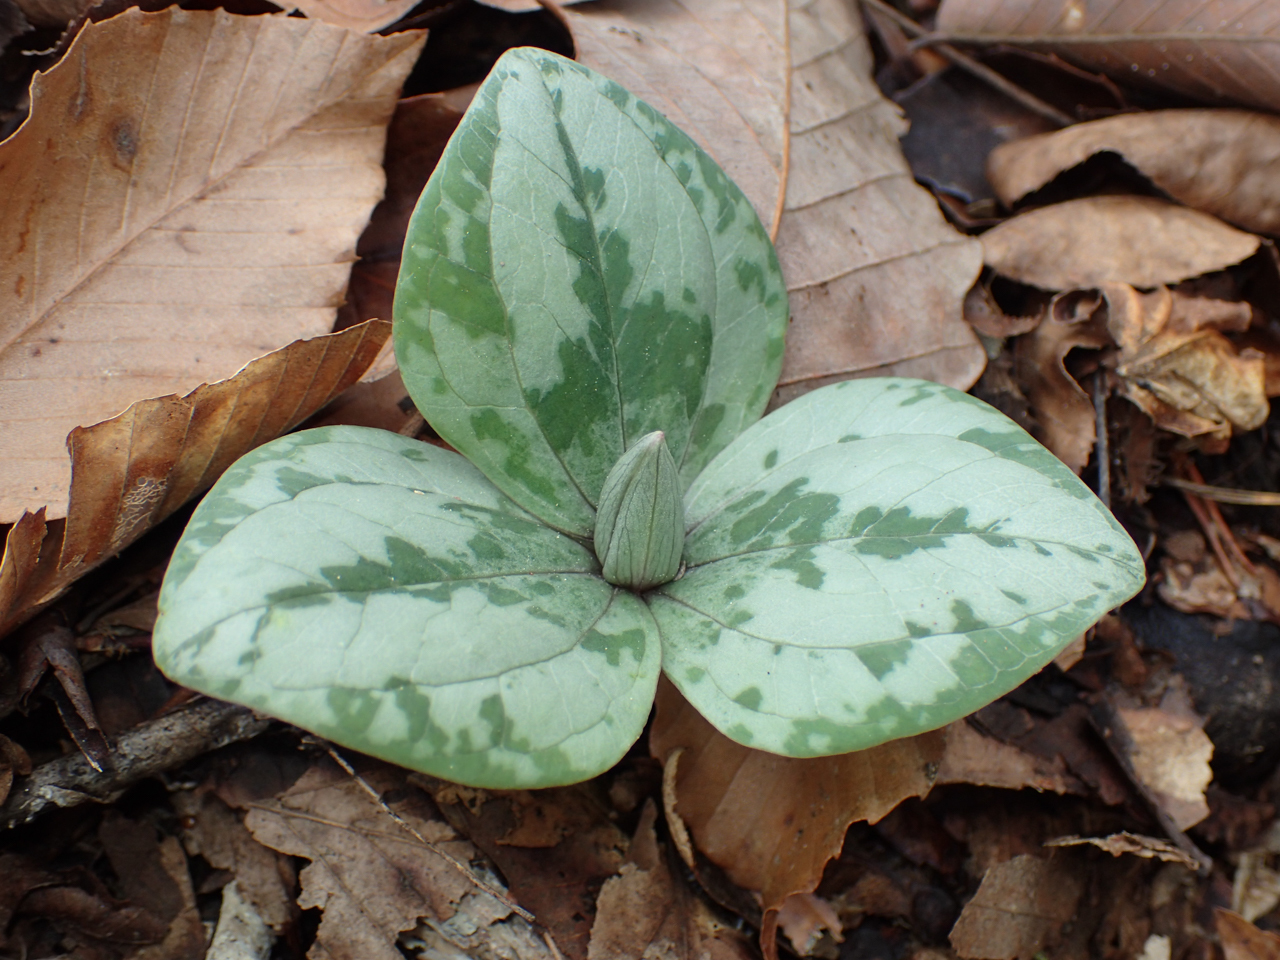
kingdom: Plantae
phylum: Tracheophyta
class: Liliopsida
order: Liliales
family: Melanthiaceae
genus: Trillium
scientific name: Trillium decumbens
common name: Decumbent trillium
